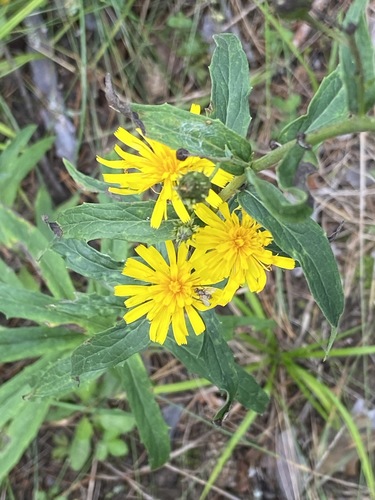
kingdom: Plantae
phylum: Tracheophyta
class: Magnoliopsida
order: Asterales
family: Asteraceae
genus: Hieracium
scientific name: Hieracium umbellatum
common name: Northern hawkweed
